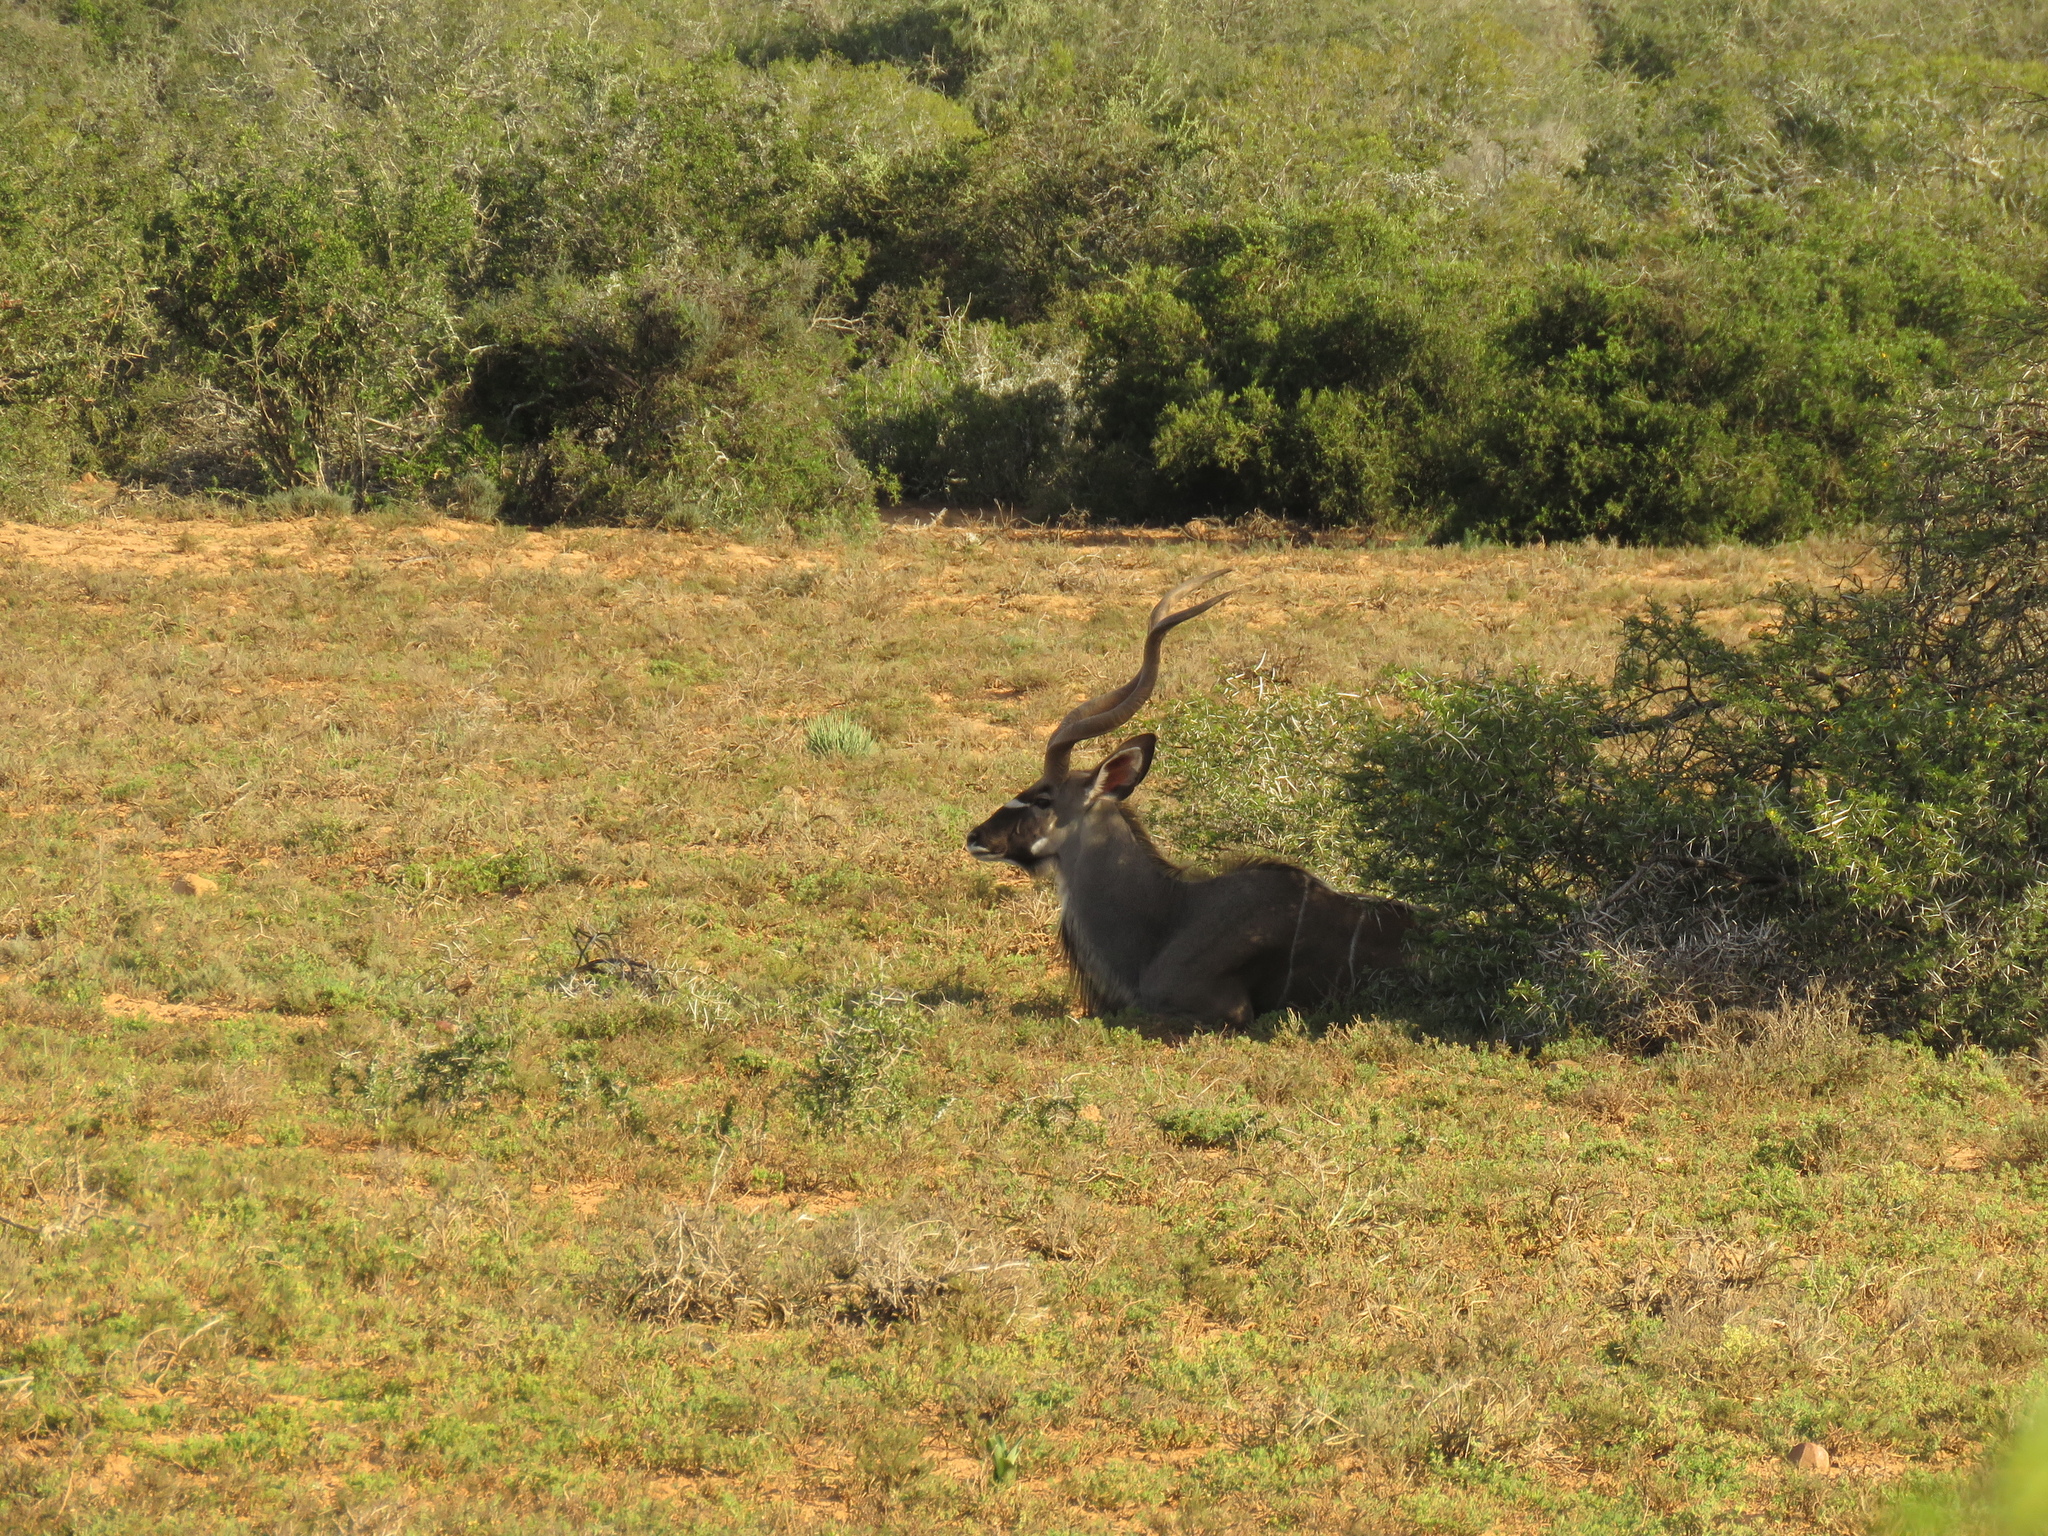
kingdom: Animalia
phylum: Chordata
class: Mammalia
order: Artiodactyla
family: Bovidae
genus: Tragelaphus
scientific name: Tragelaphus strepsiceros
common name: Greater kudu
